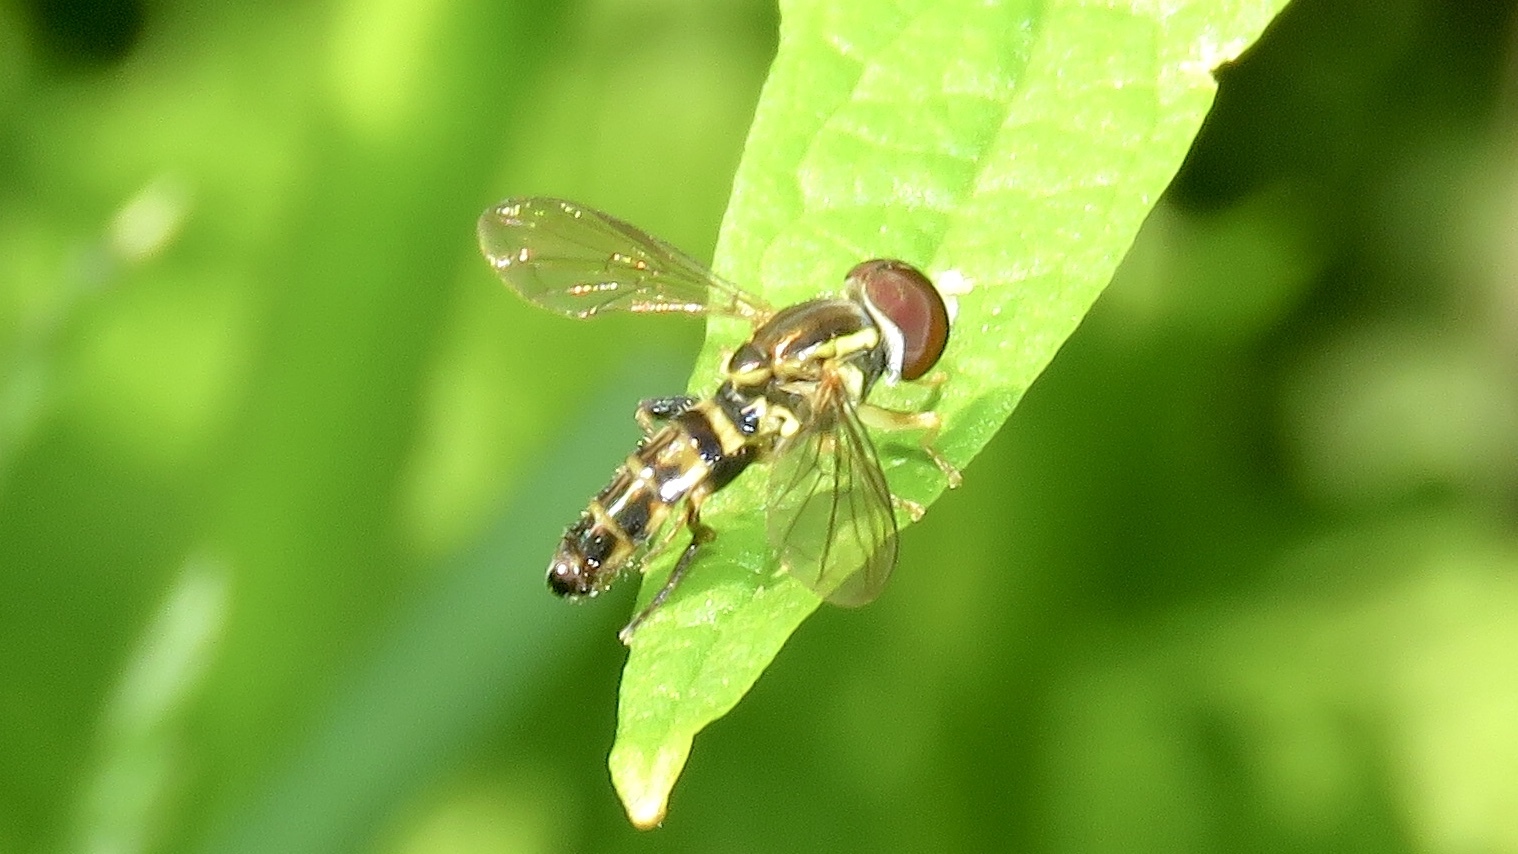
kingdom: Animalia
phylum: Arthropoda
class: Insecta
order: Diptera
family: Syrphidae
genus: Toxomerus
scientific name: Toxomerus geminatus
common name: Eastern calligrapher
